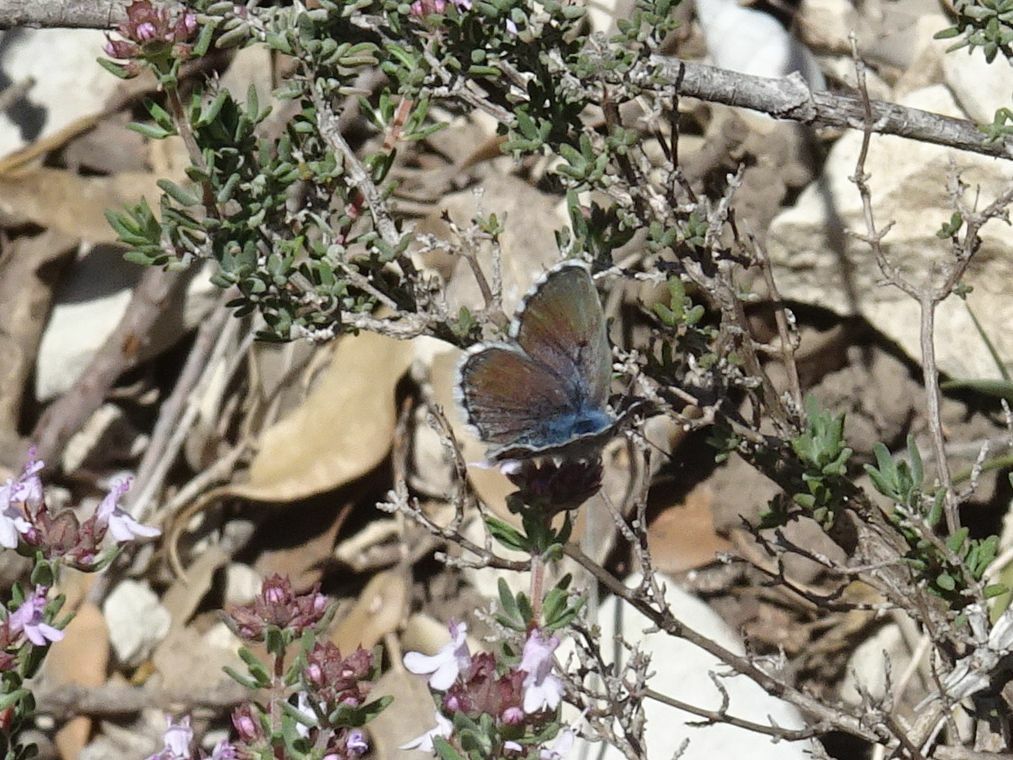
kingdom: Animalia
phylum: Arthropoda
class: Insecta
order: Lepidoptera
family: Lycaenidae
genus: Pseudophilotes
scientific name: Pseudophilotes baton
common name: Baton blue
